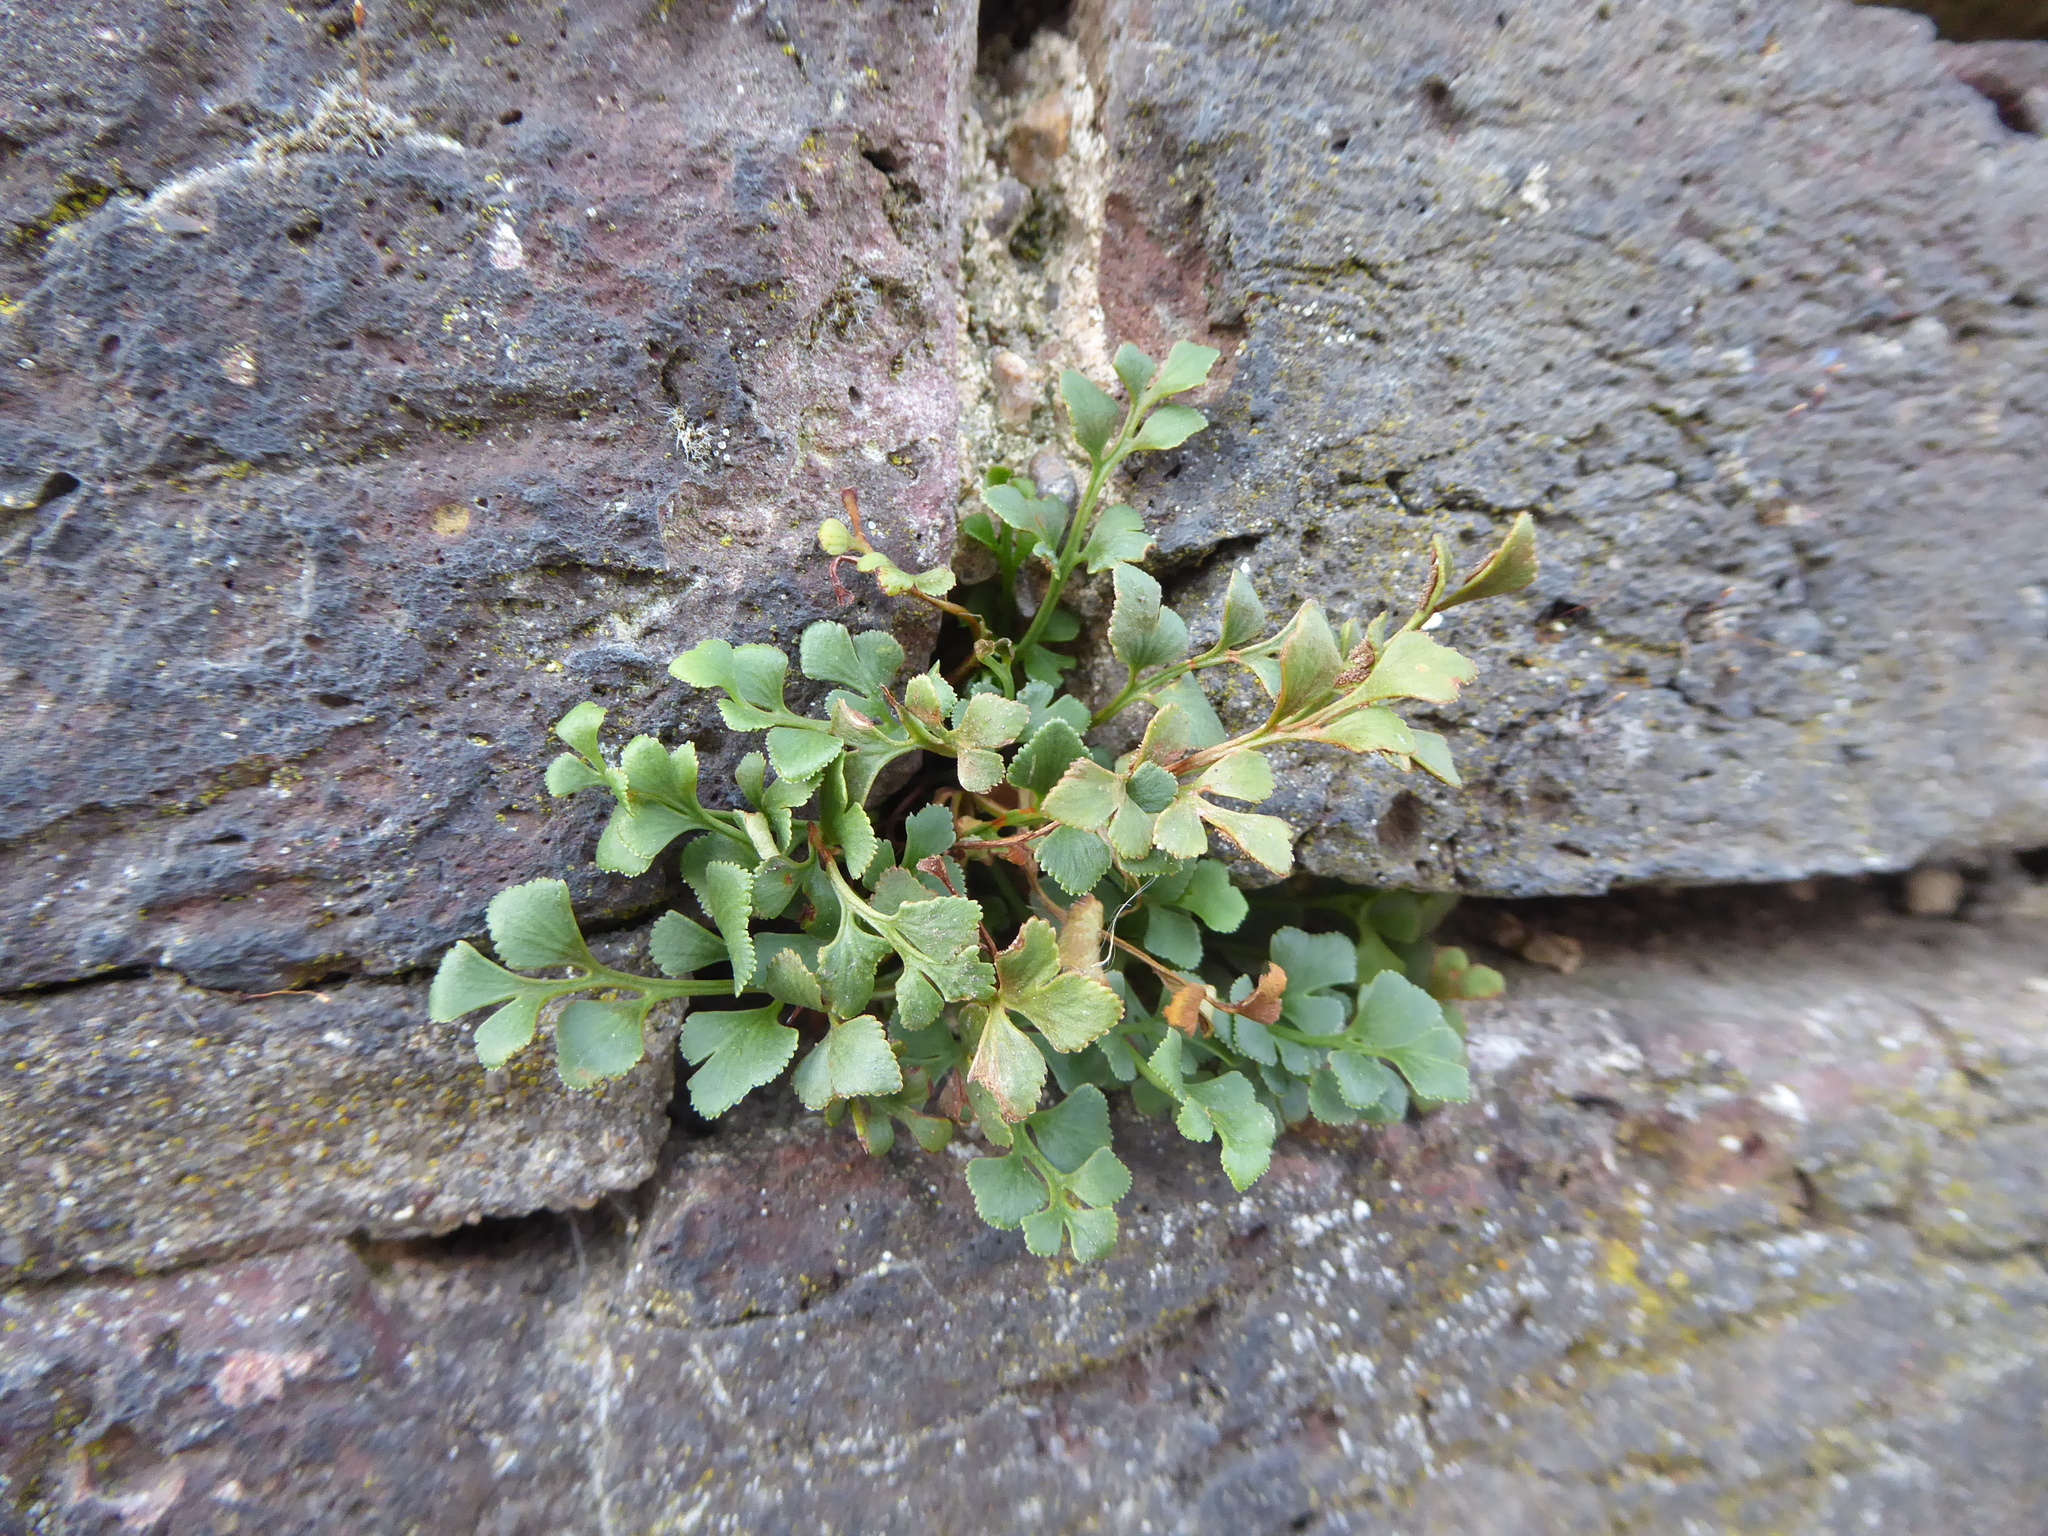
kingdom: Plantae
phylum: Tracheophyta
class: Polypodiopsida
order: Polypodiales
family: Aspleniaceae
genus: Asplenium
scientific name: Asplenium ruta-muraria
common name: Wall-rue
